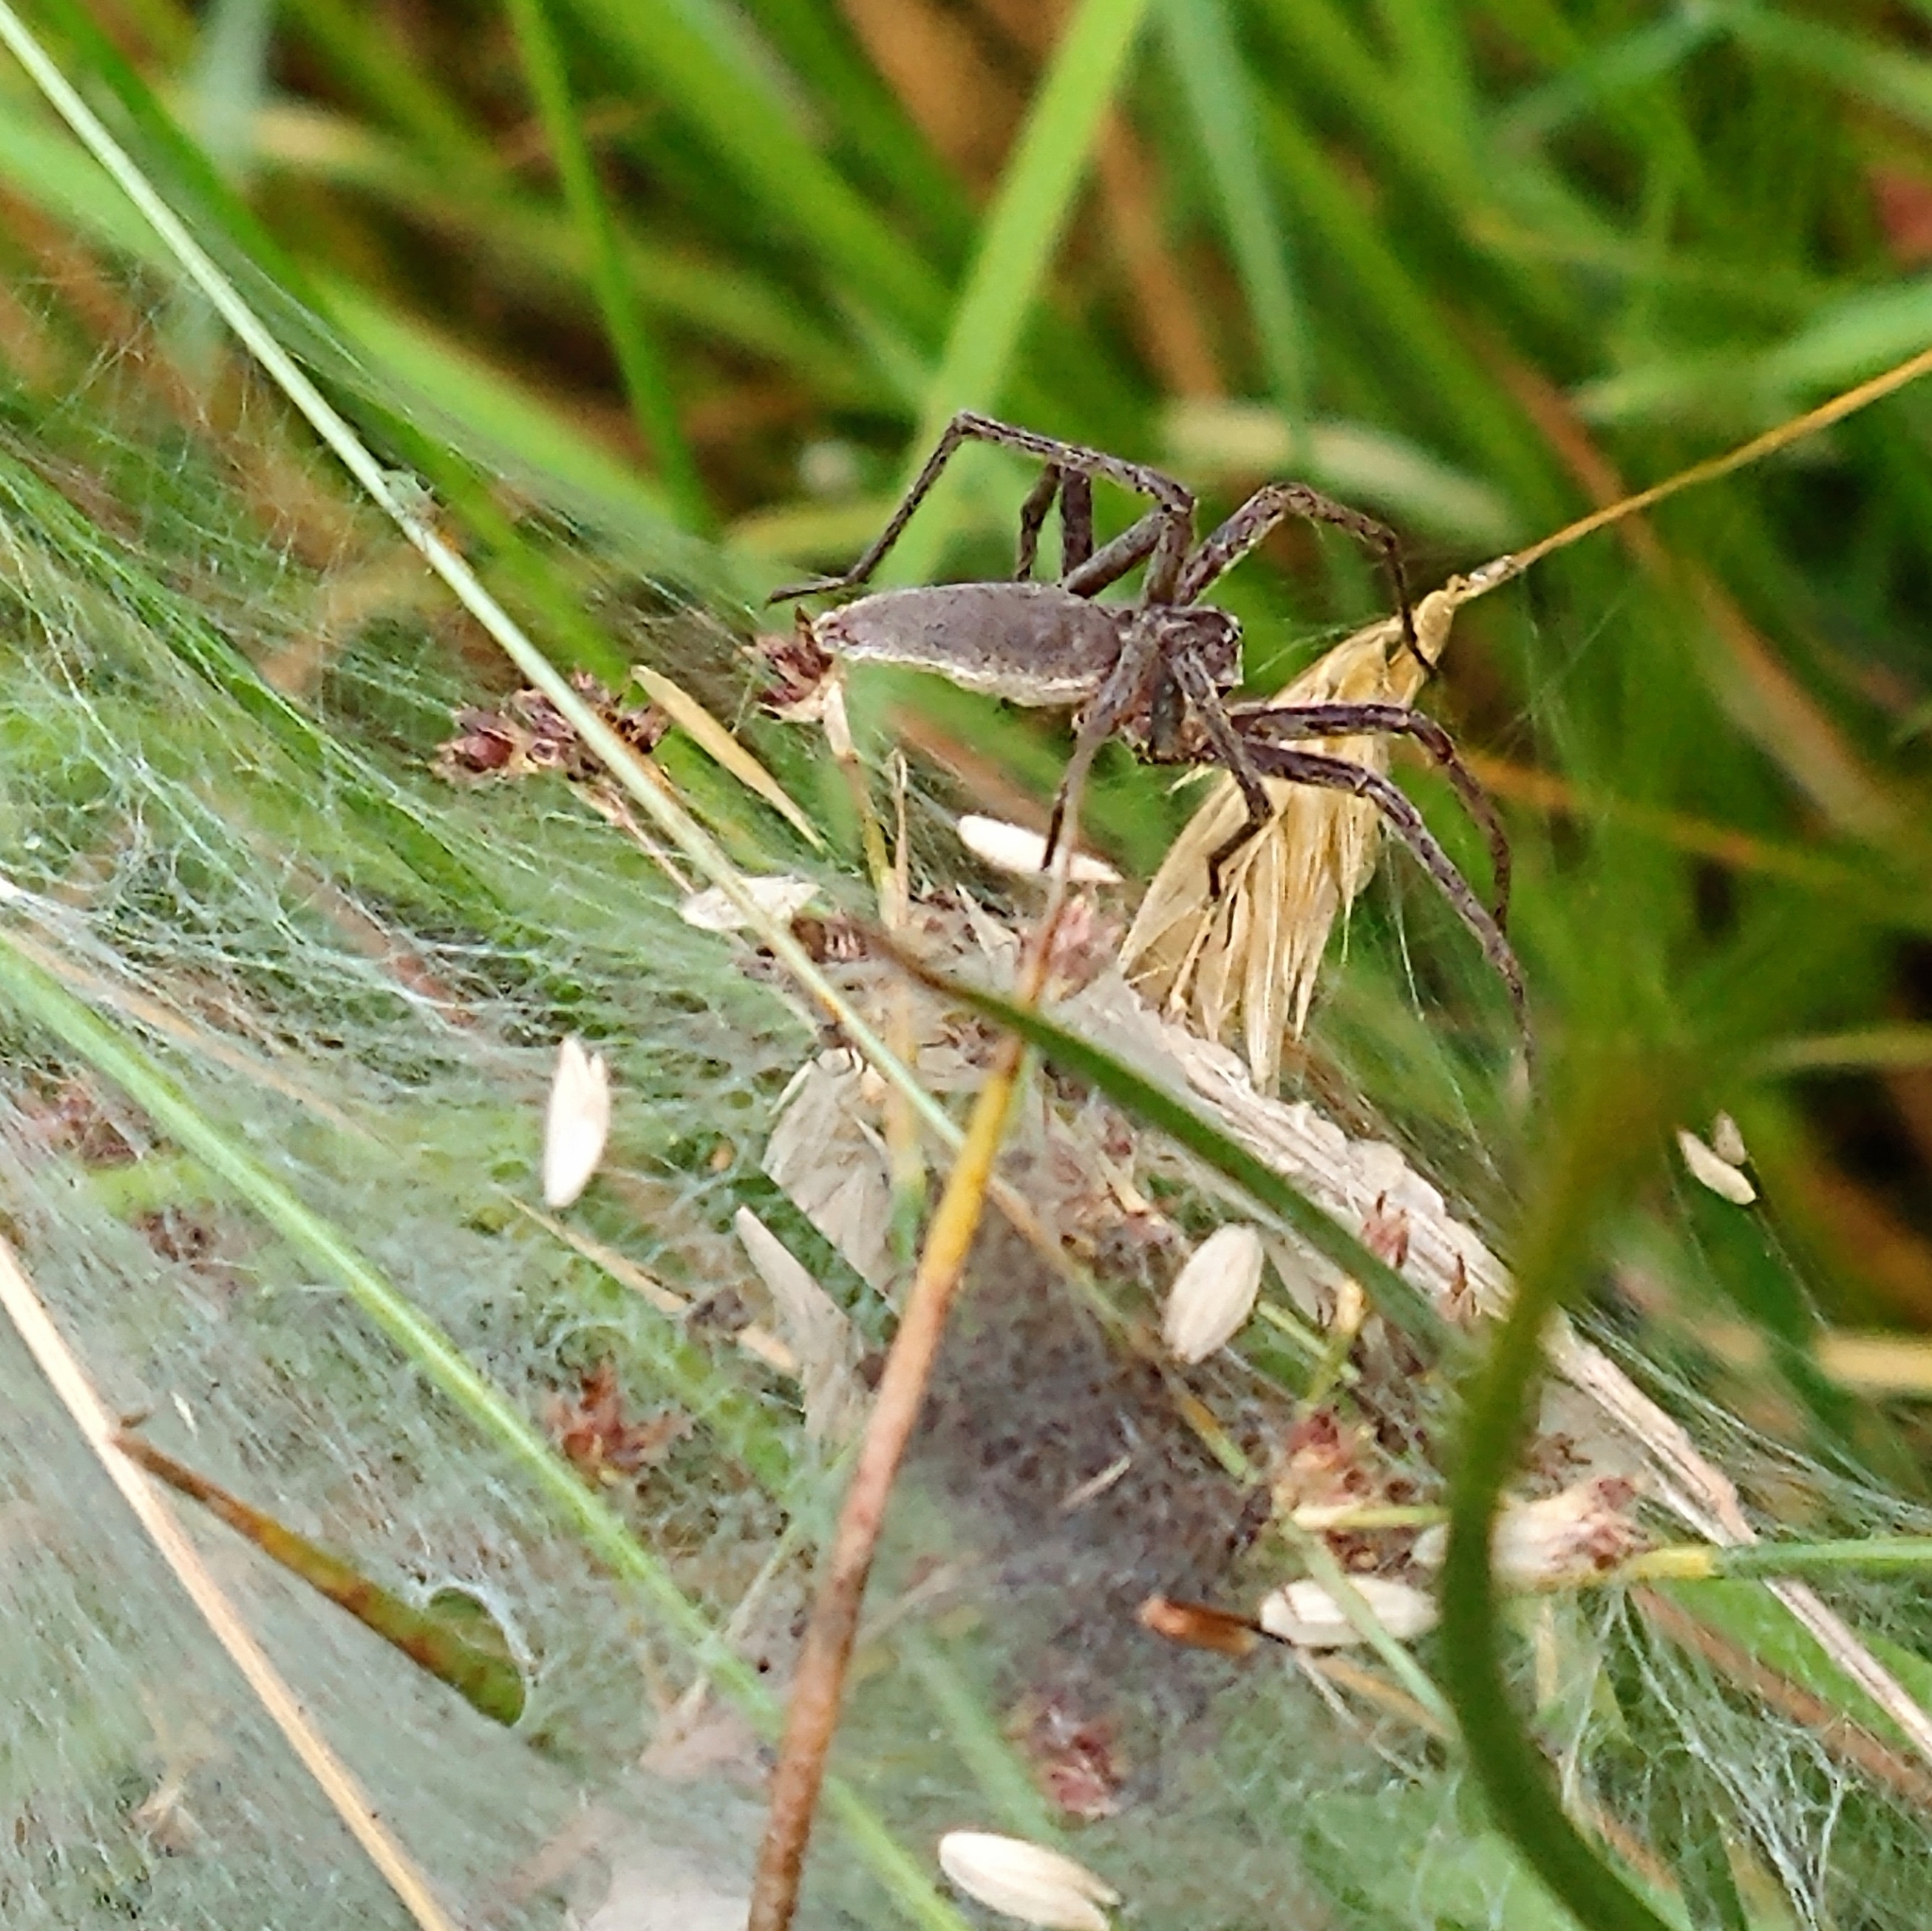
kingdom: Animalia
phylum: Arthropoda
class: Arachnida
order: Araneae
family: Pisauridae
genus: Pisaura
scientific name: Pisaura mirabilis
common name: Tent spider
